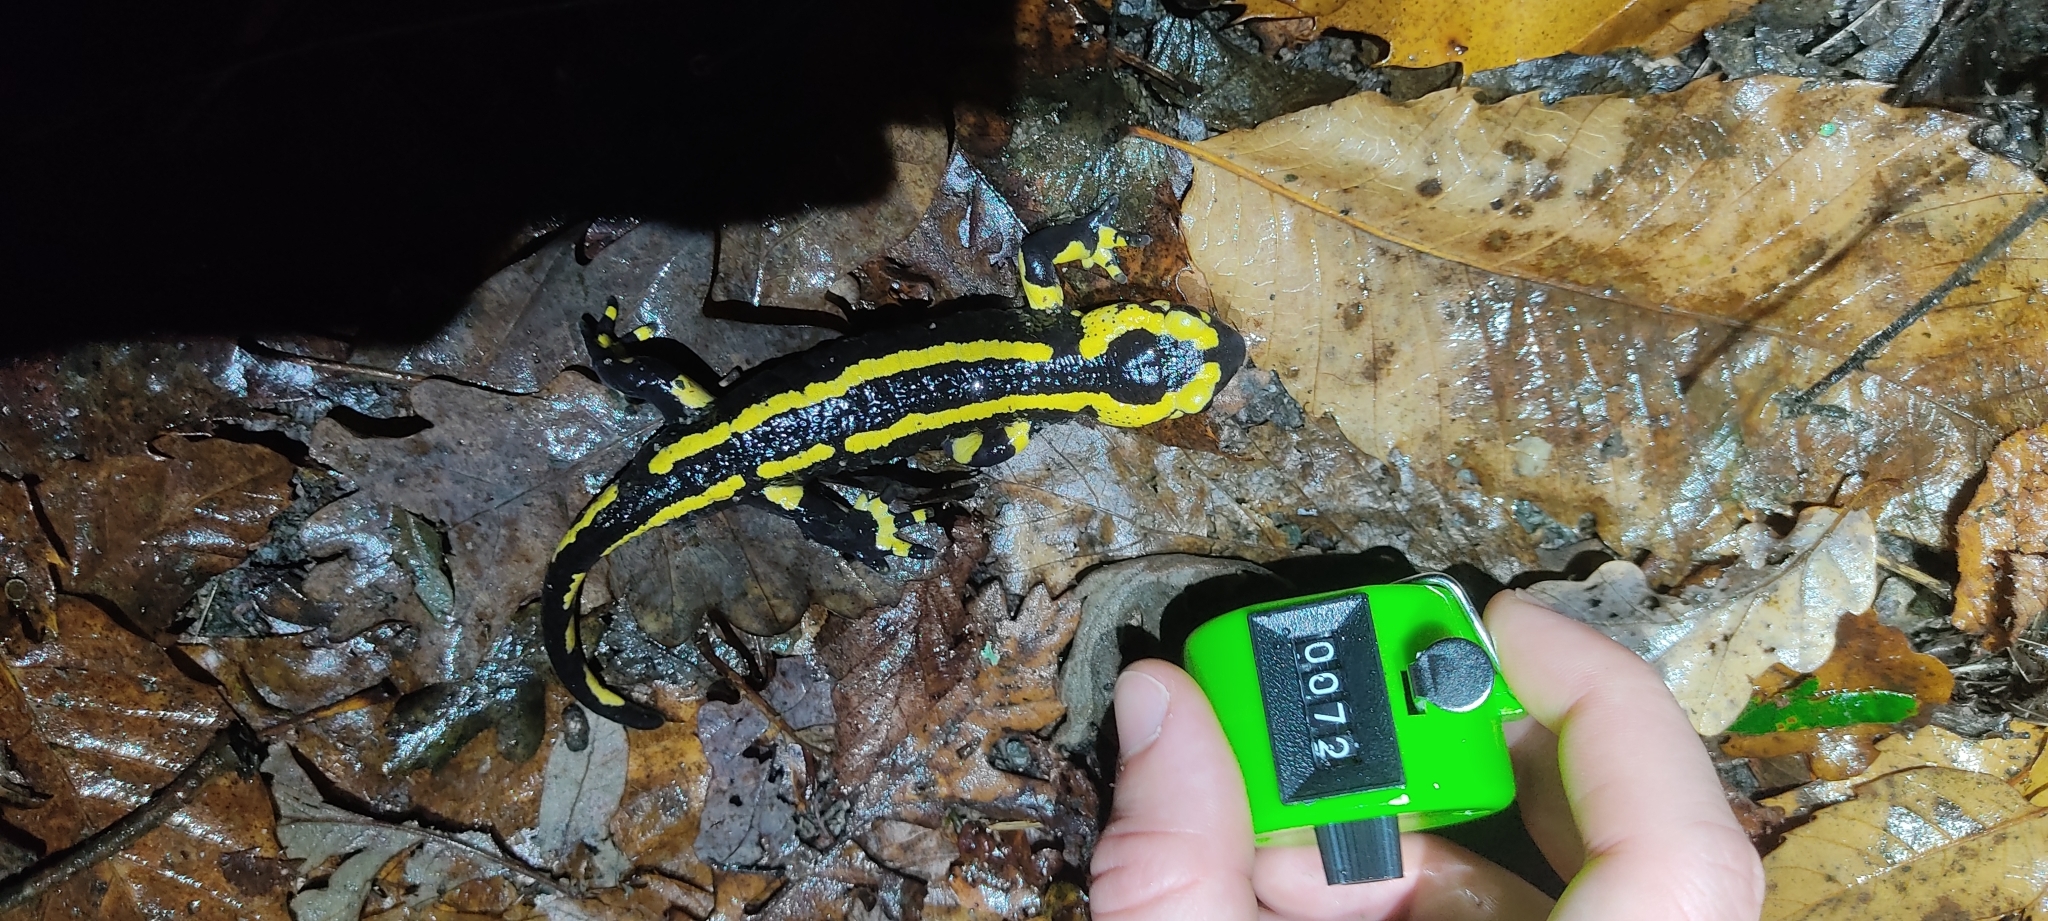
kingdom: Animalia
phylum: Chordata
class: Amphibia
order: Caudata
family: Salamandridae
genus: Salamandra
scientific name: Salamandra salamandra
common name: Fire salamander
